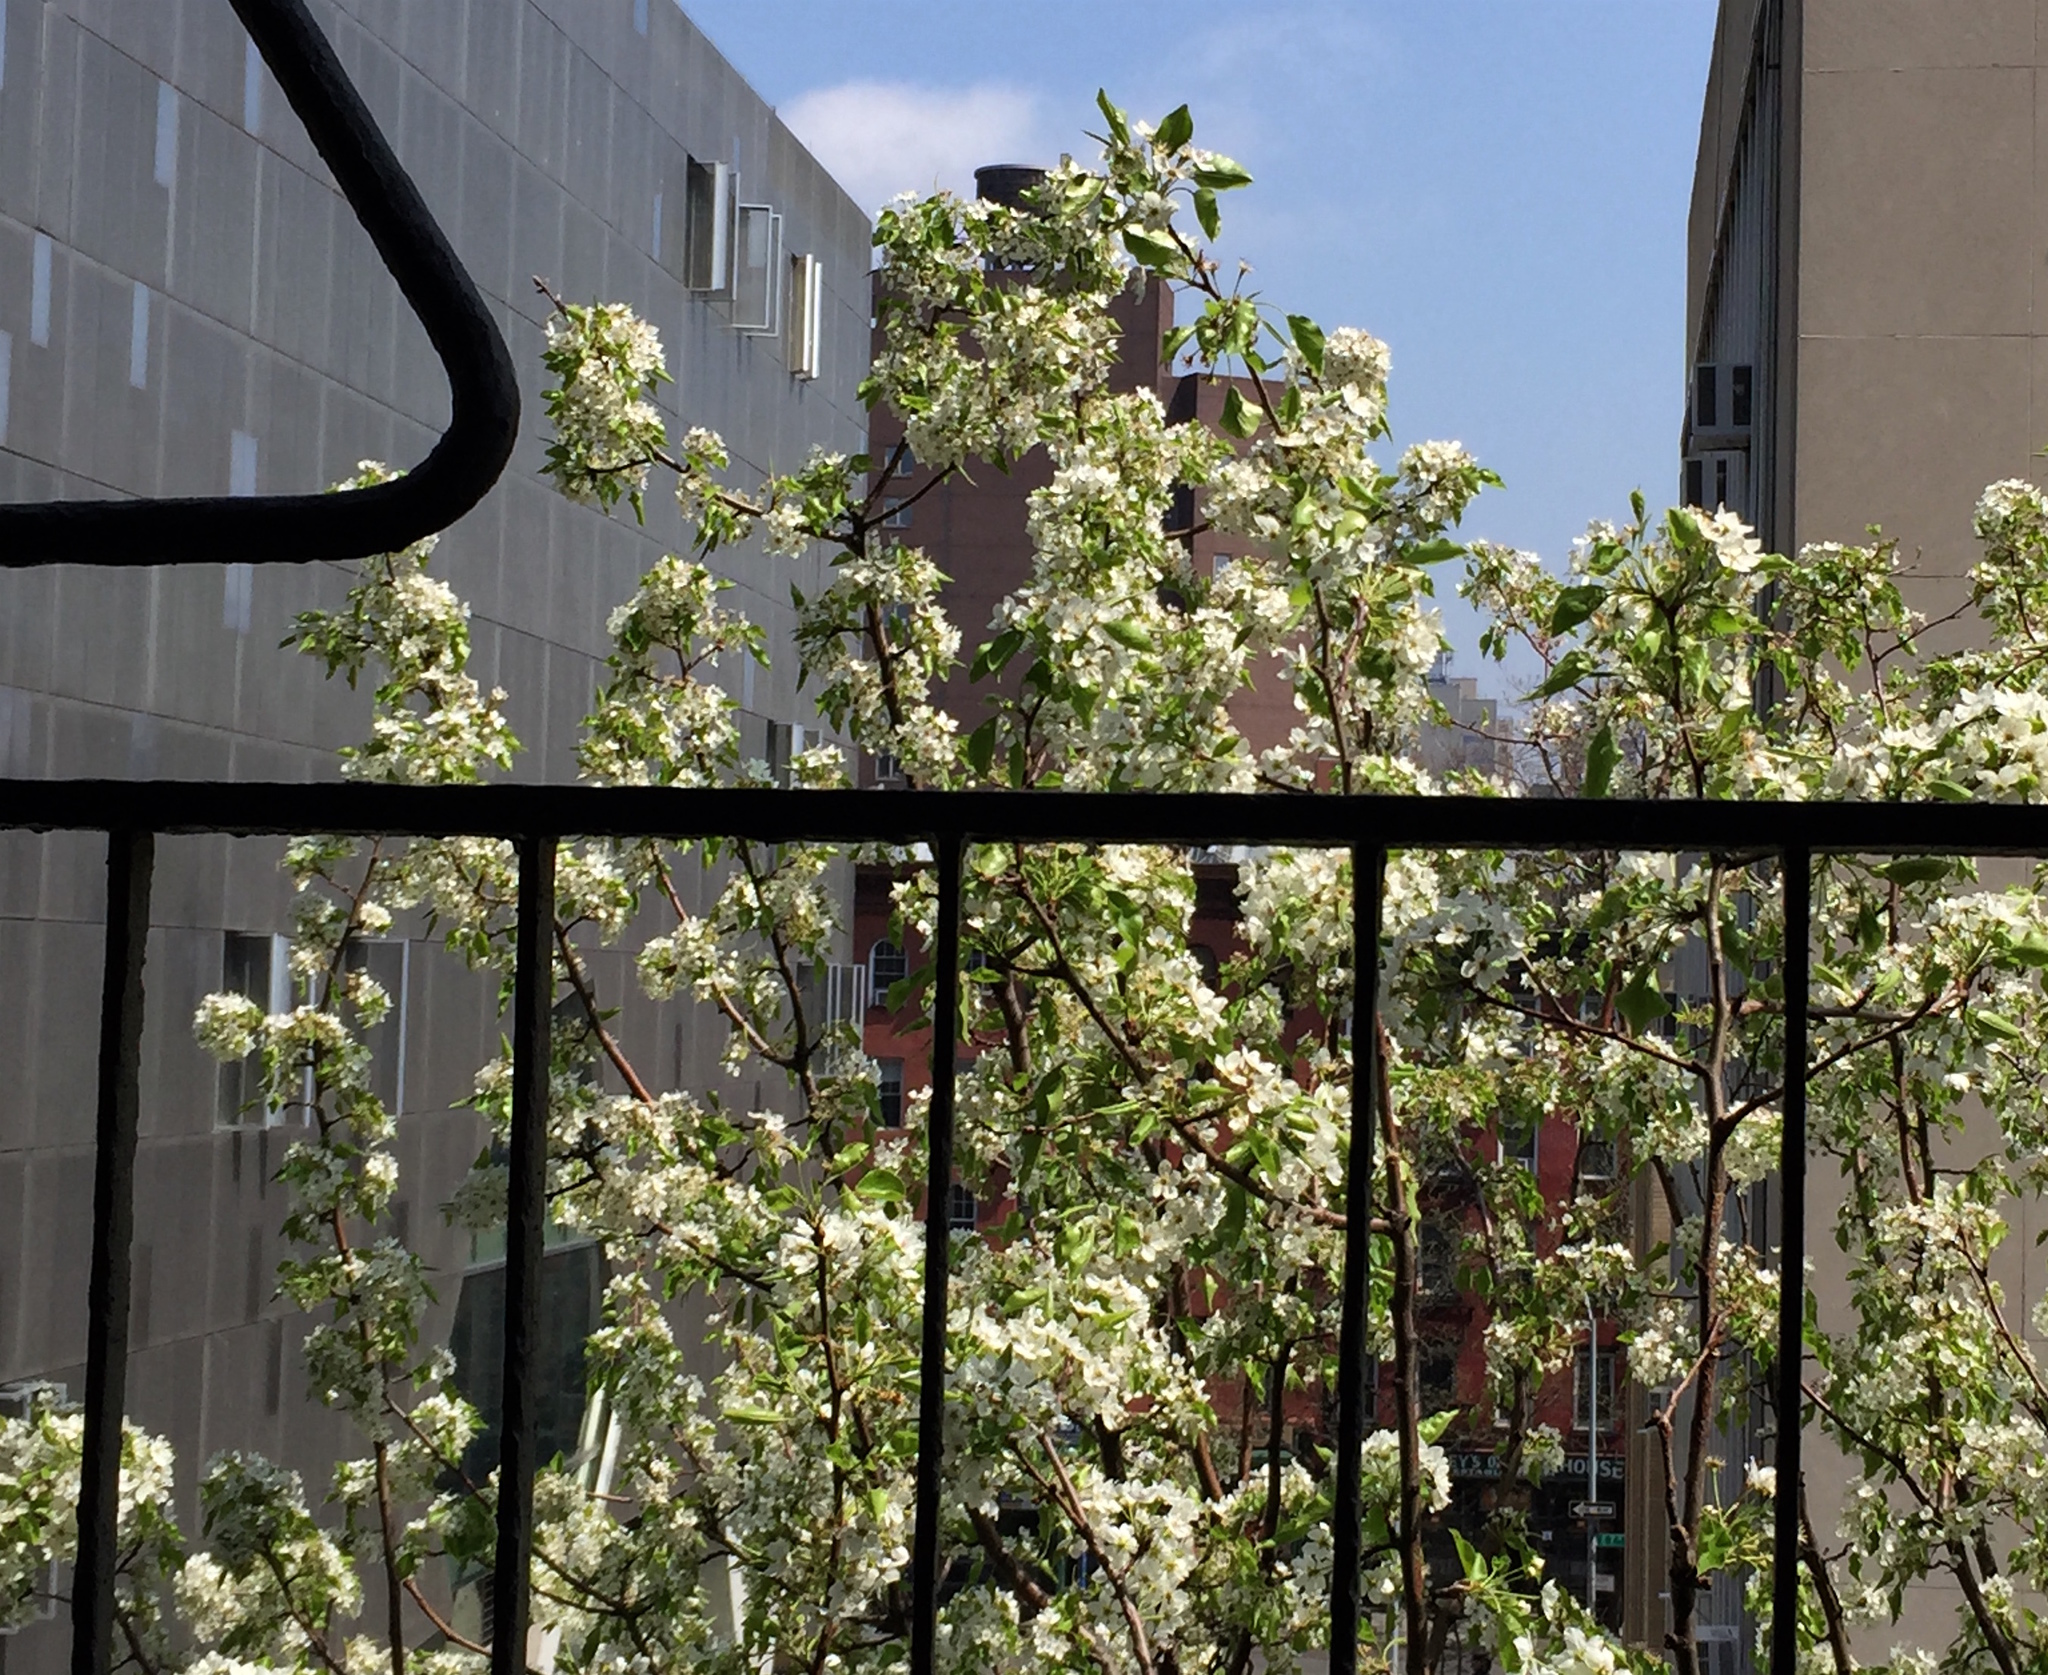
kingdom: Plantae
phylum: Tracheophyta
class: Magnoliopsida
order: Rosales
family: Rosaceae
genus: Pyrus
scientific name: Pyrus calleryana
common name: Callery pear
